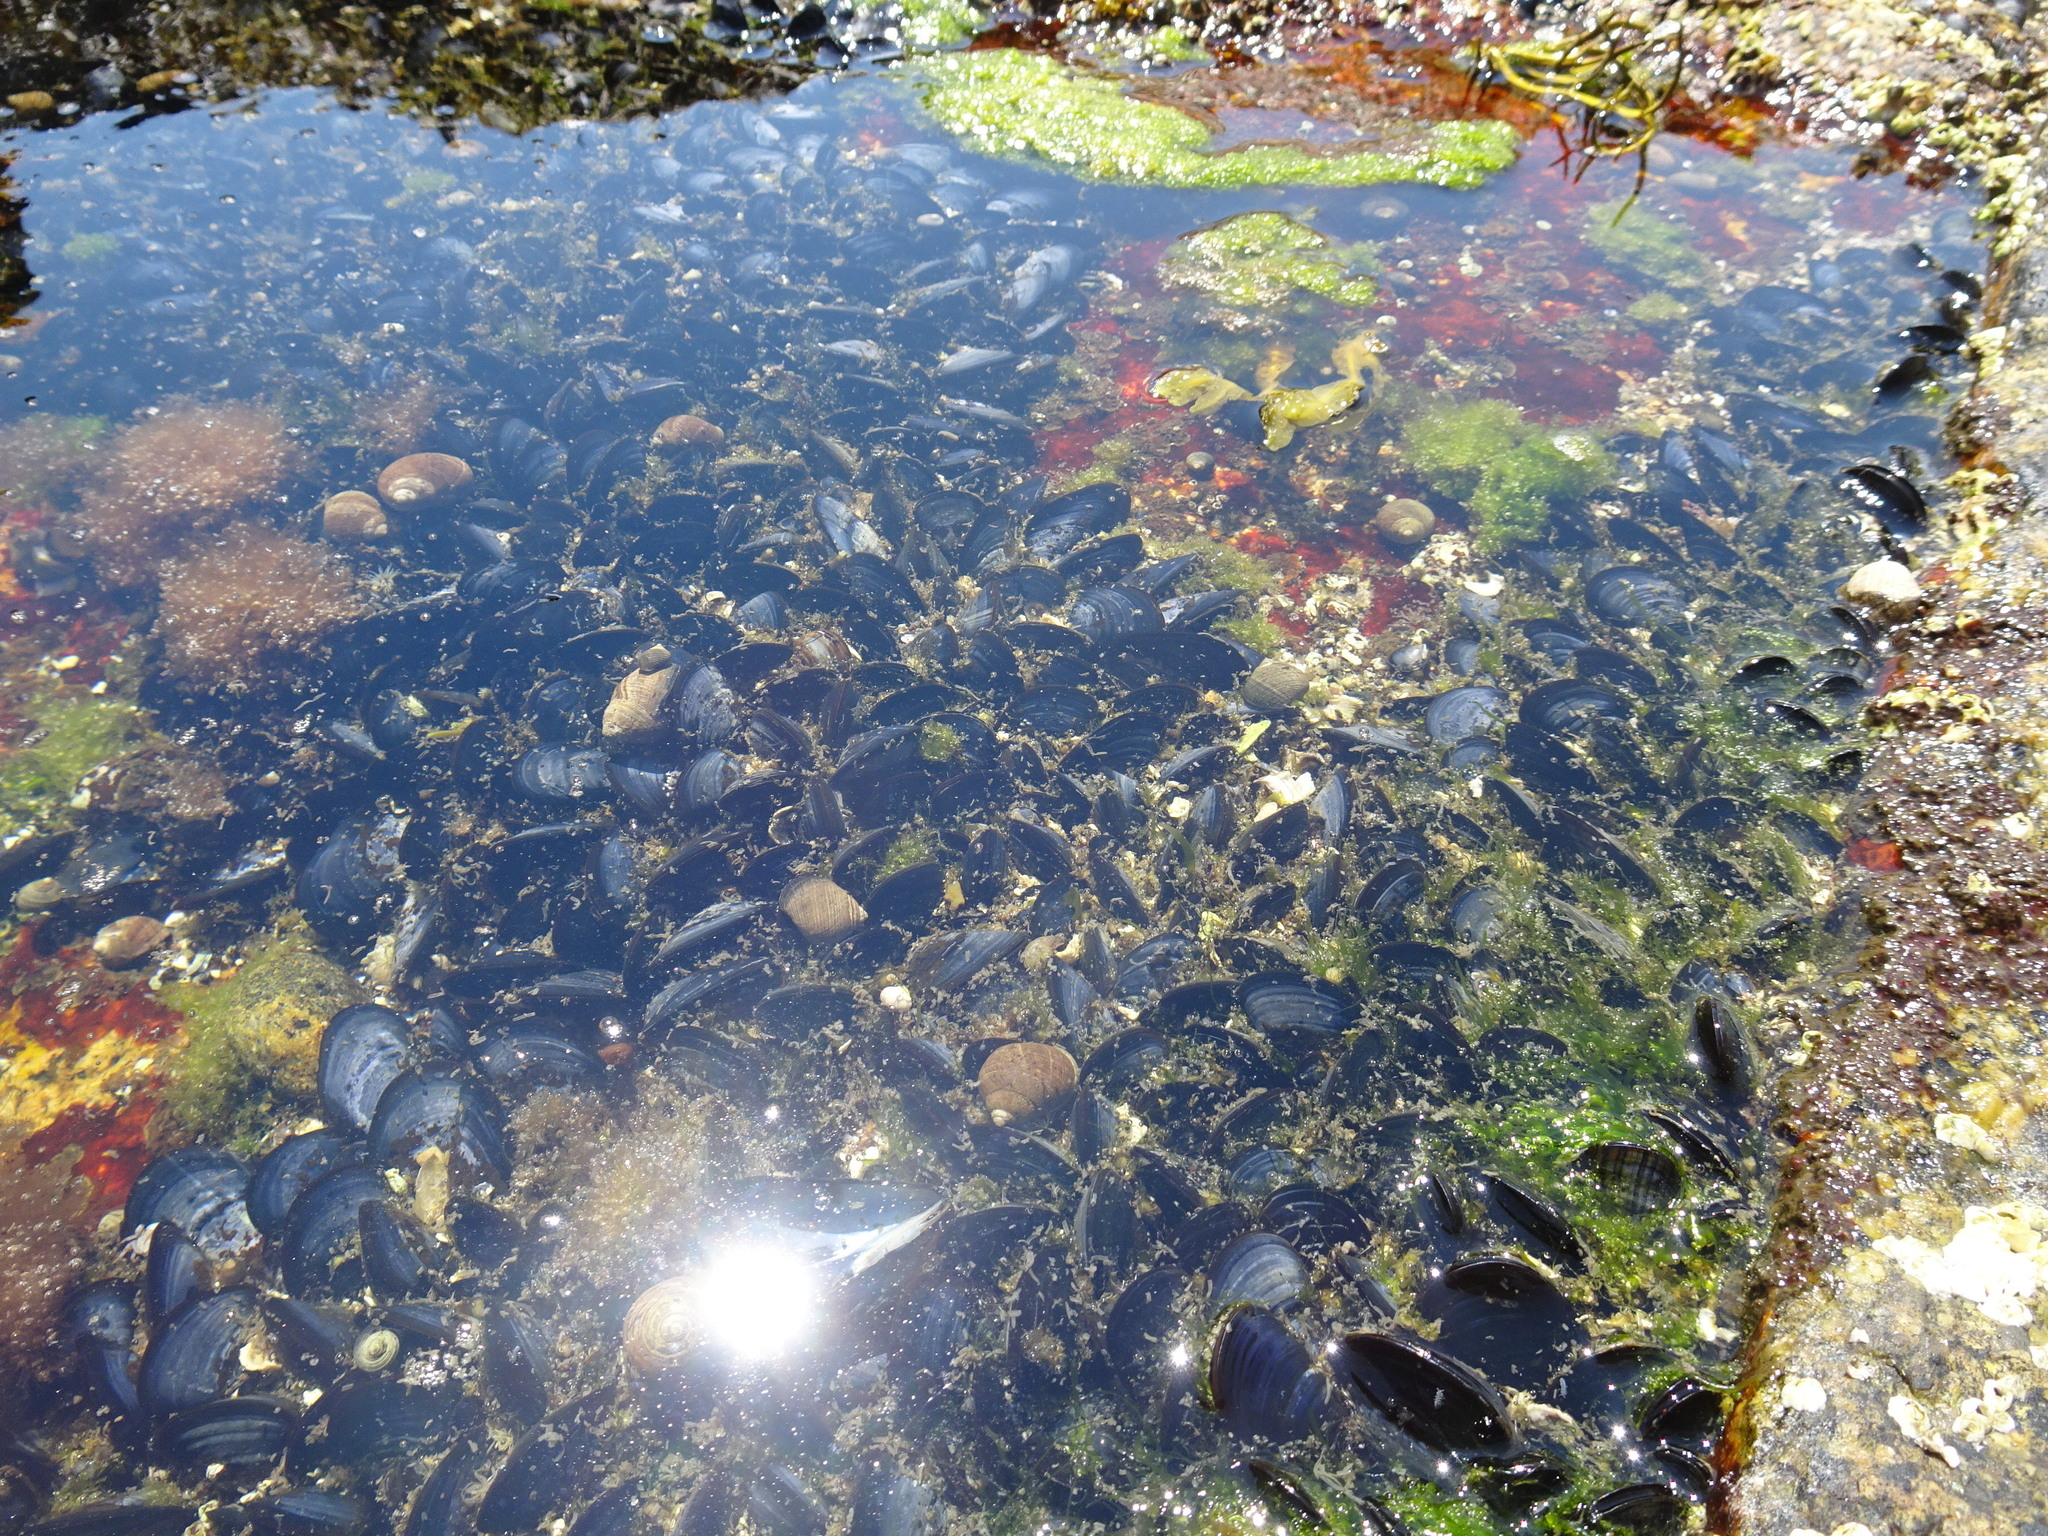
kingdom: Animalia
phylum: Mollusca
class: Bivalvia
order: Mytilida
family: Mytilidae
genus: Mytilus
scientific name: Mytilus edulis
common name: Blue mussel
